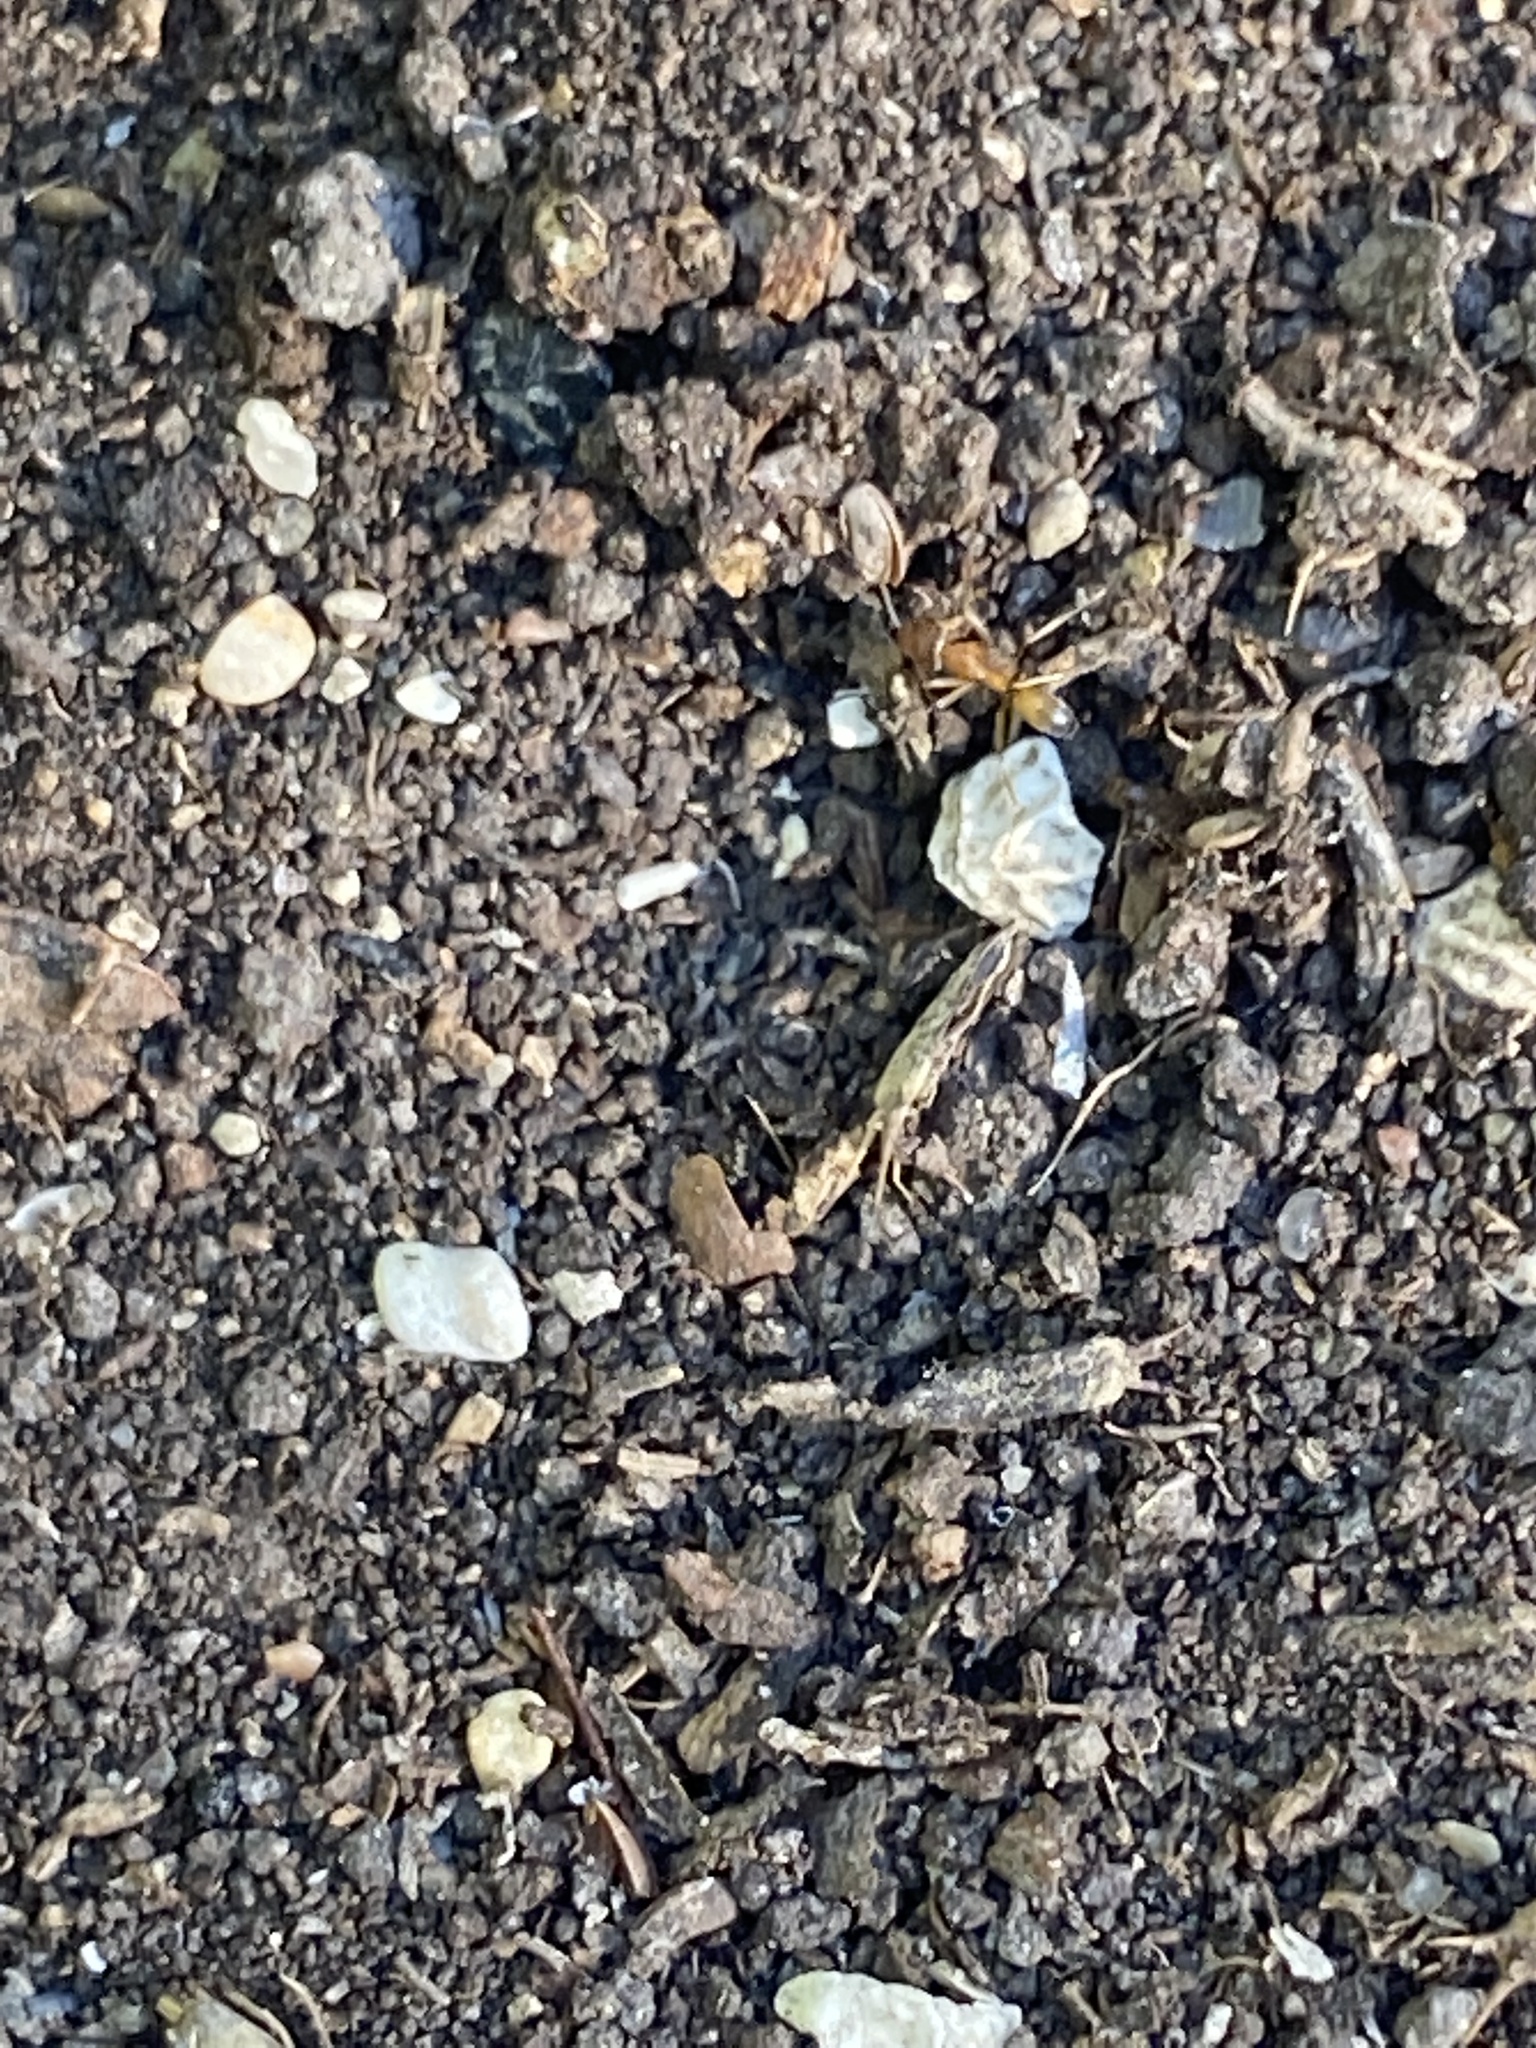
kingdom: Animalia
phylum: Arthropoda
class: Insecta
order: Hymenoptera
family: Formicidae
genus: Dorymyrmex
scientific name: Dorymyrmex flavus
